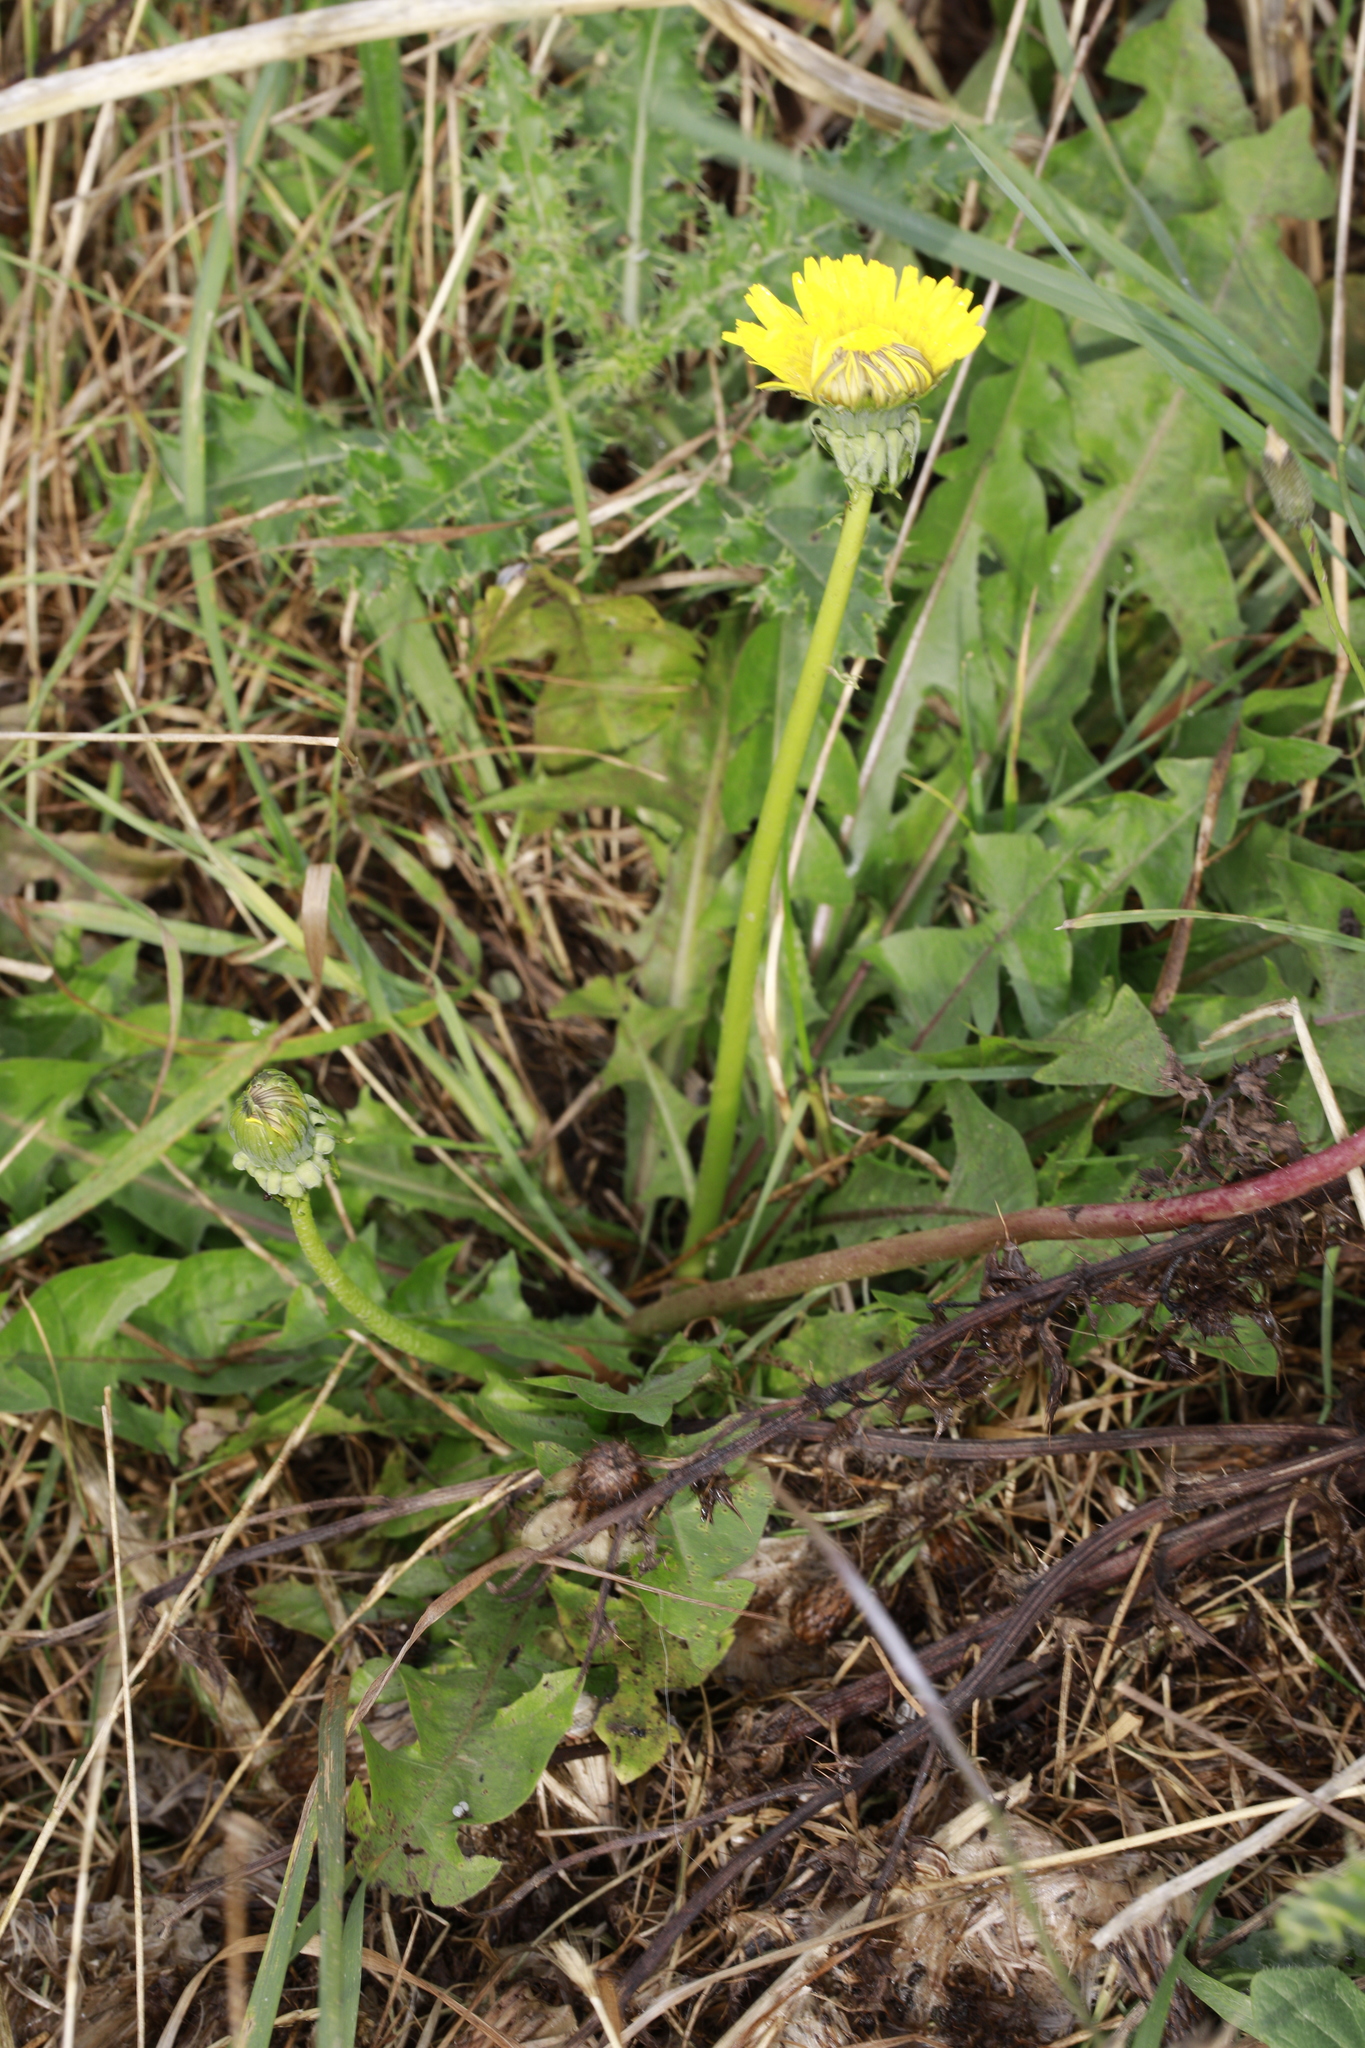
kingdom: Plantae
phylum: Tracheophyta
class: Magnoliopsida
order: Asterales
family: Asteraceae
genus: Taraxacum
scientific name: Taraxacum officinale
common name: Common dandelion
